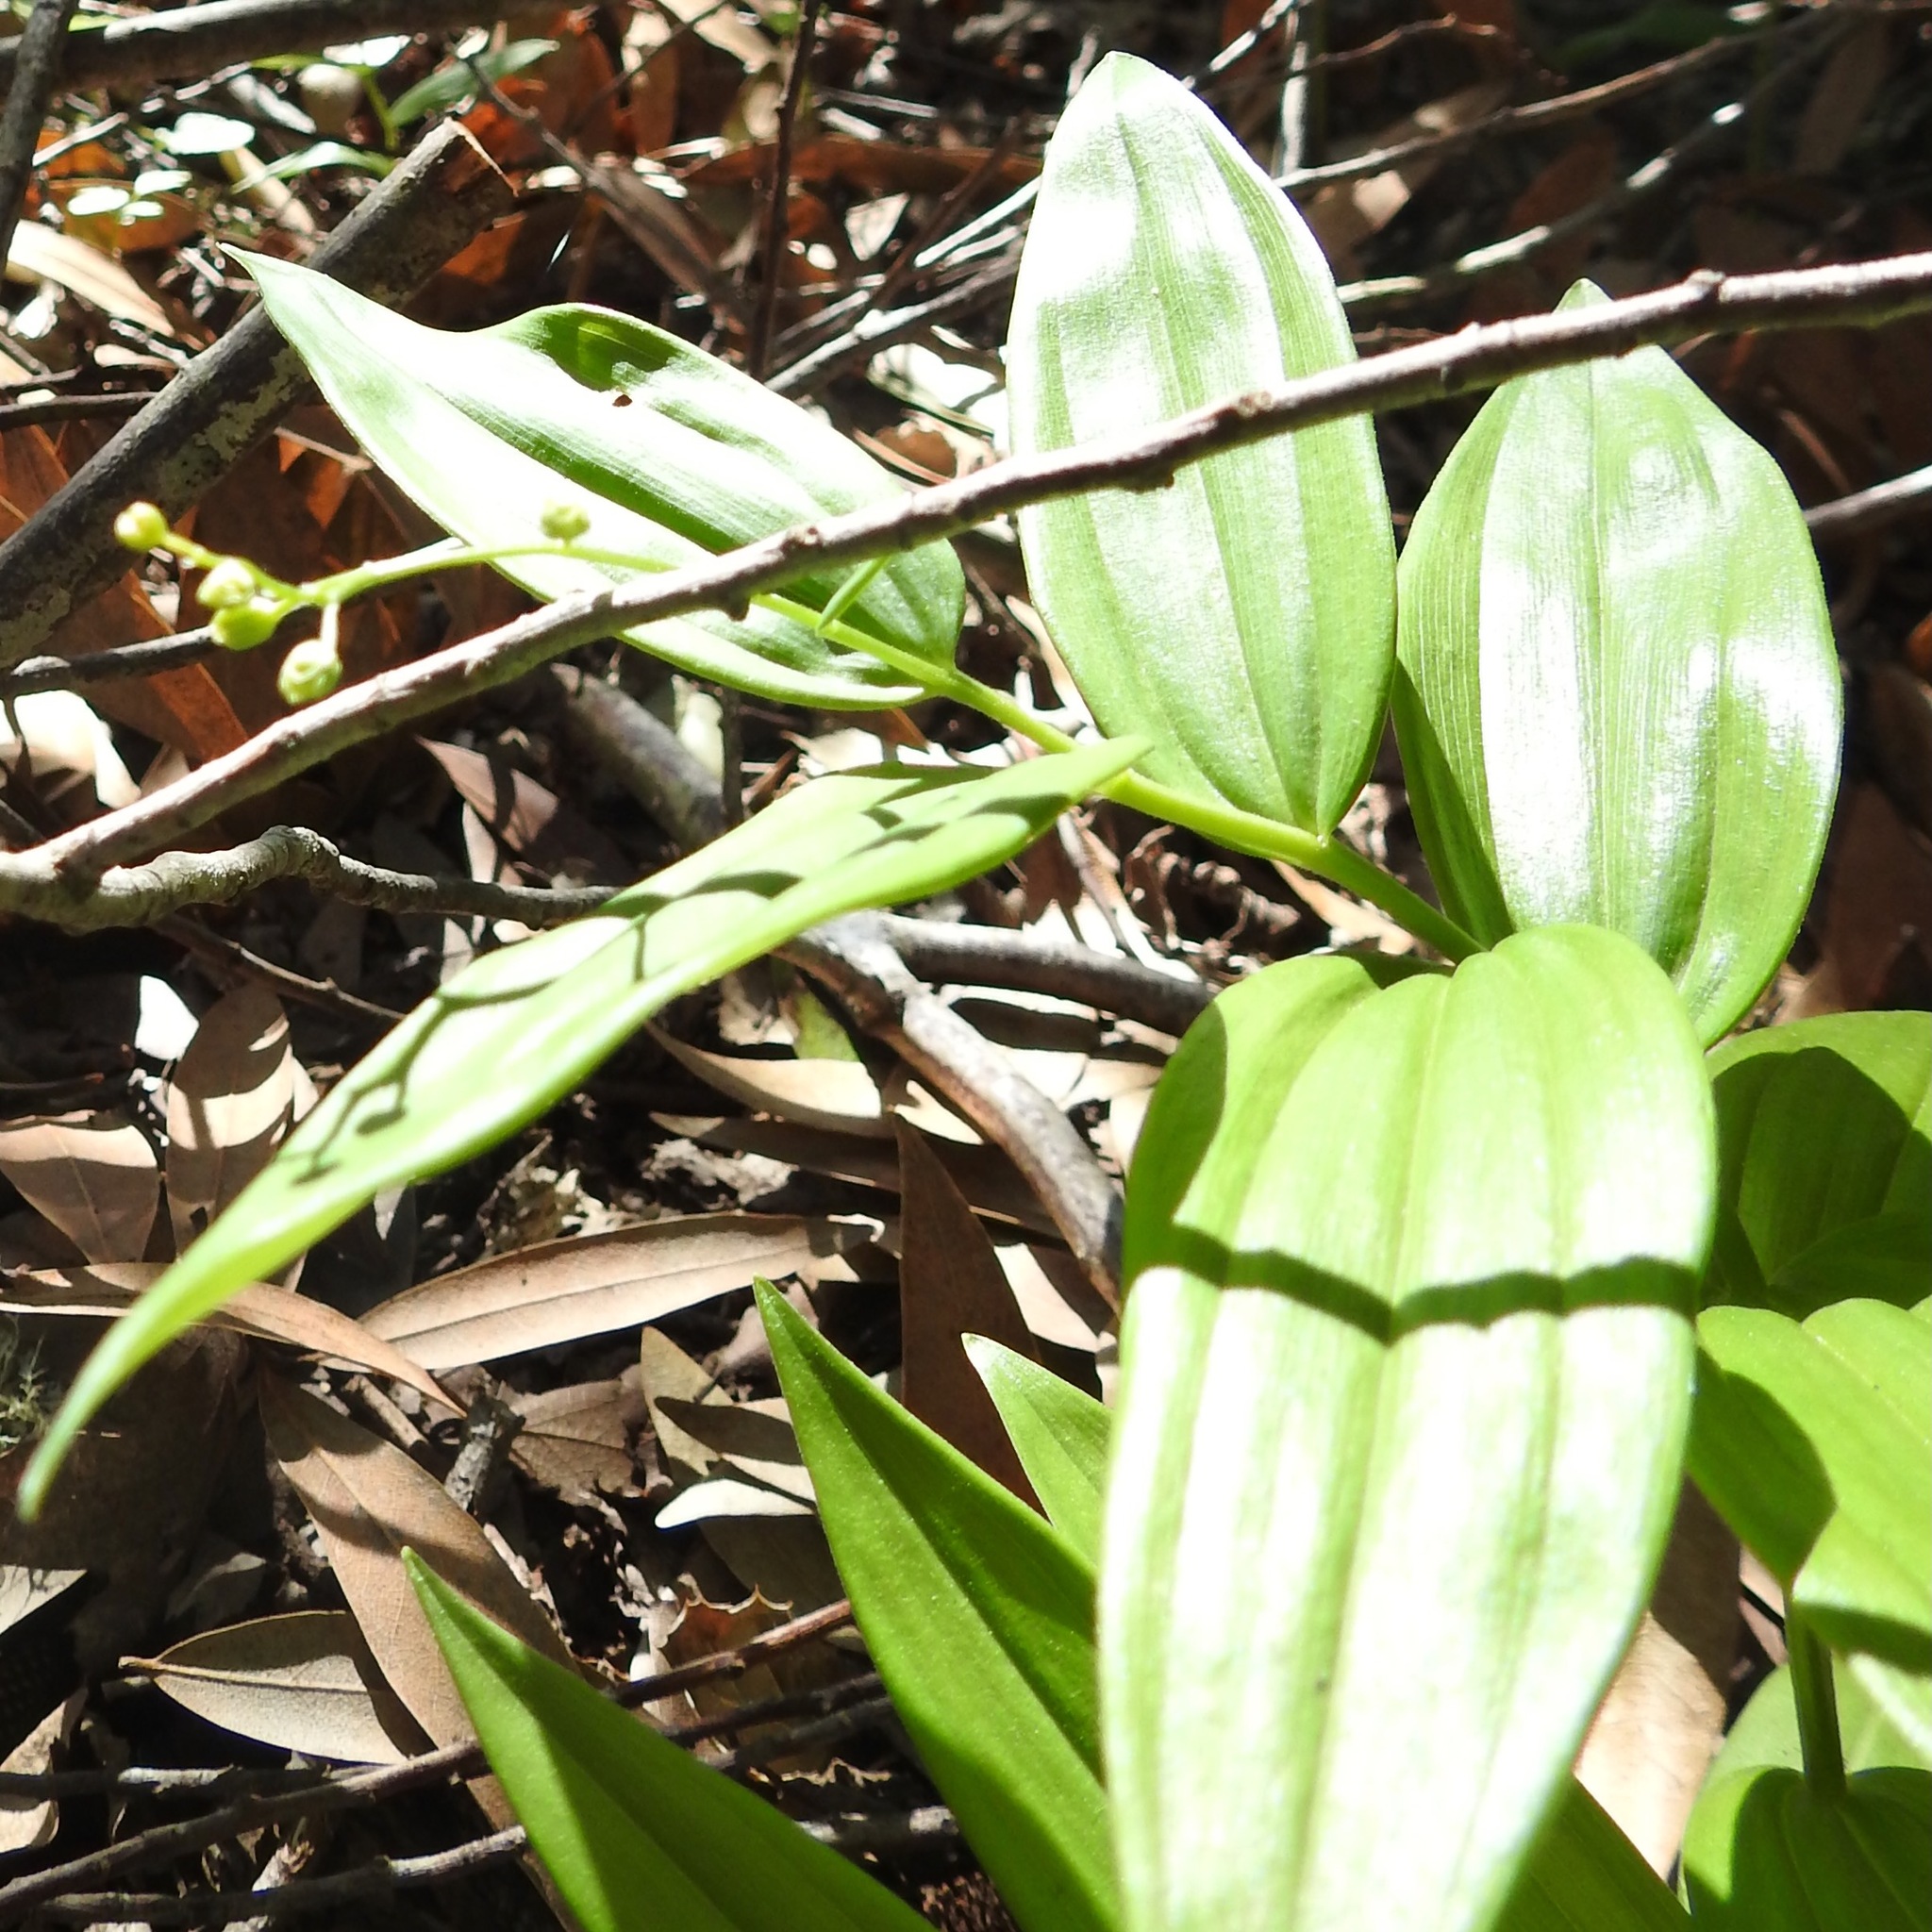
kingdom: Plantae
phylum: Tracheophyta
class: Liliopsida
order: Asparagales
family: Asparagaceae
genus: Maianthemum
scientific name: Maianthemum stellatum
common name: Little false solomon's seal
